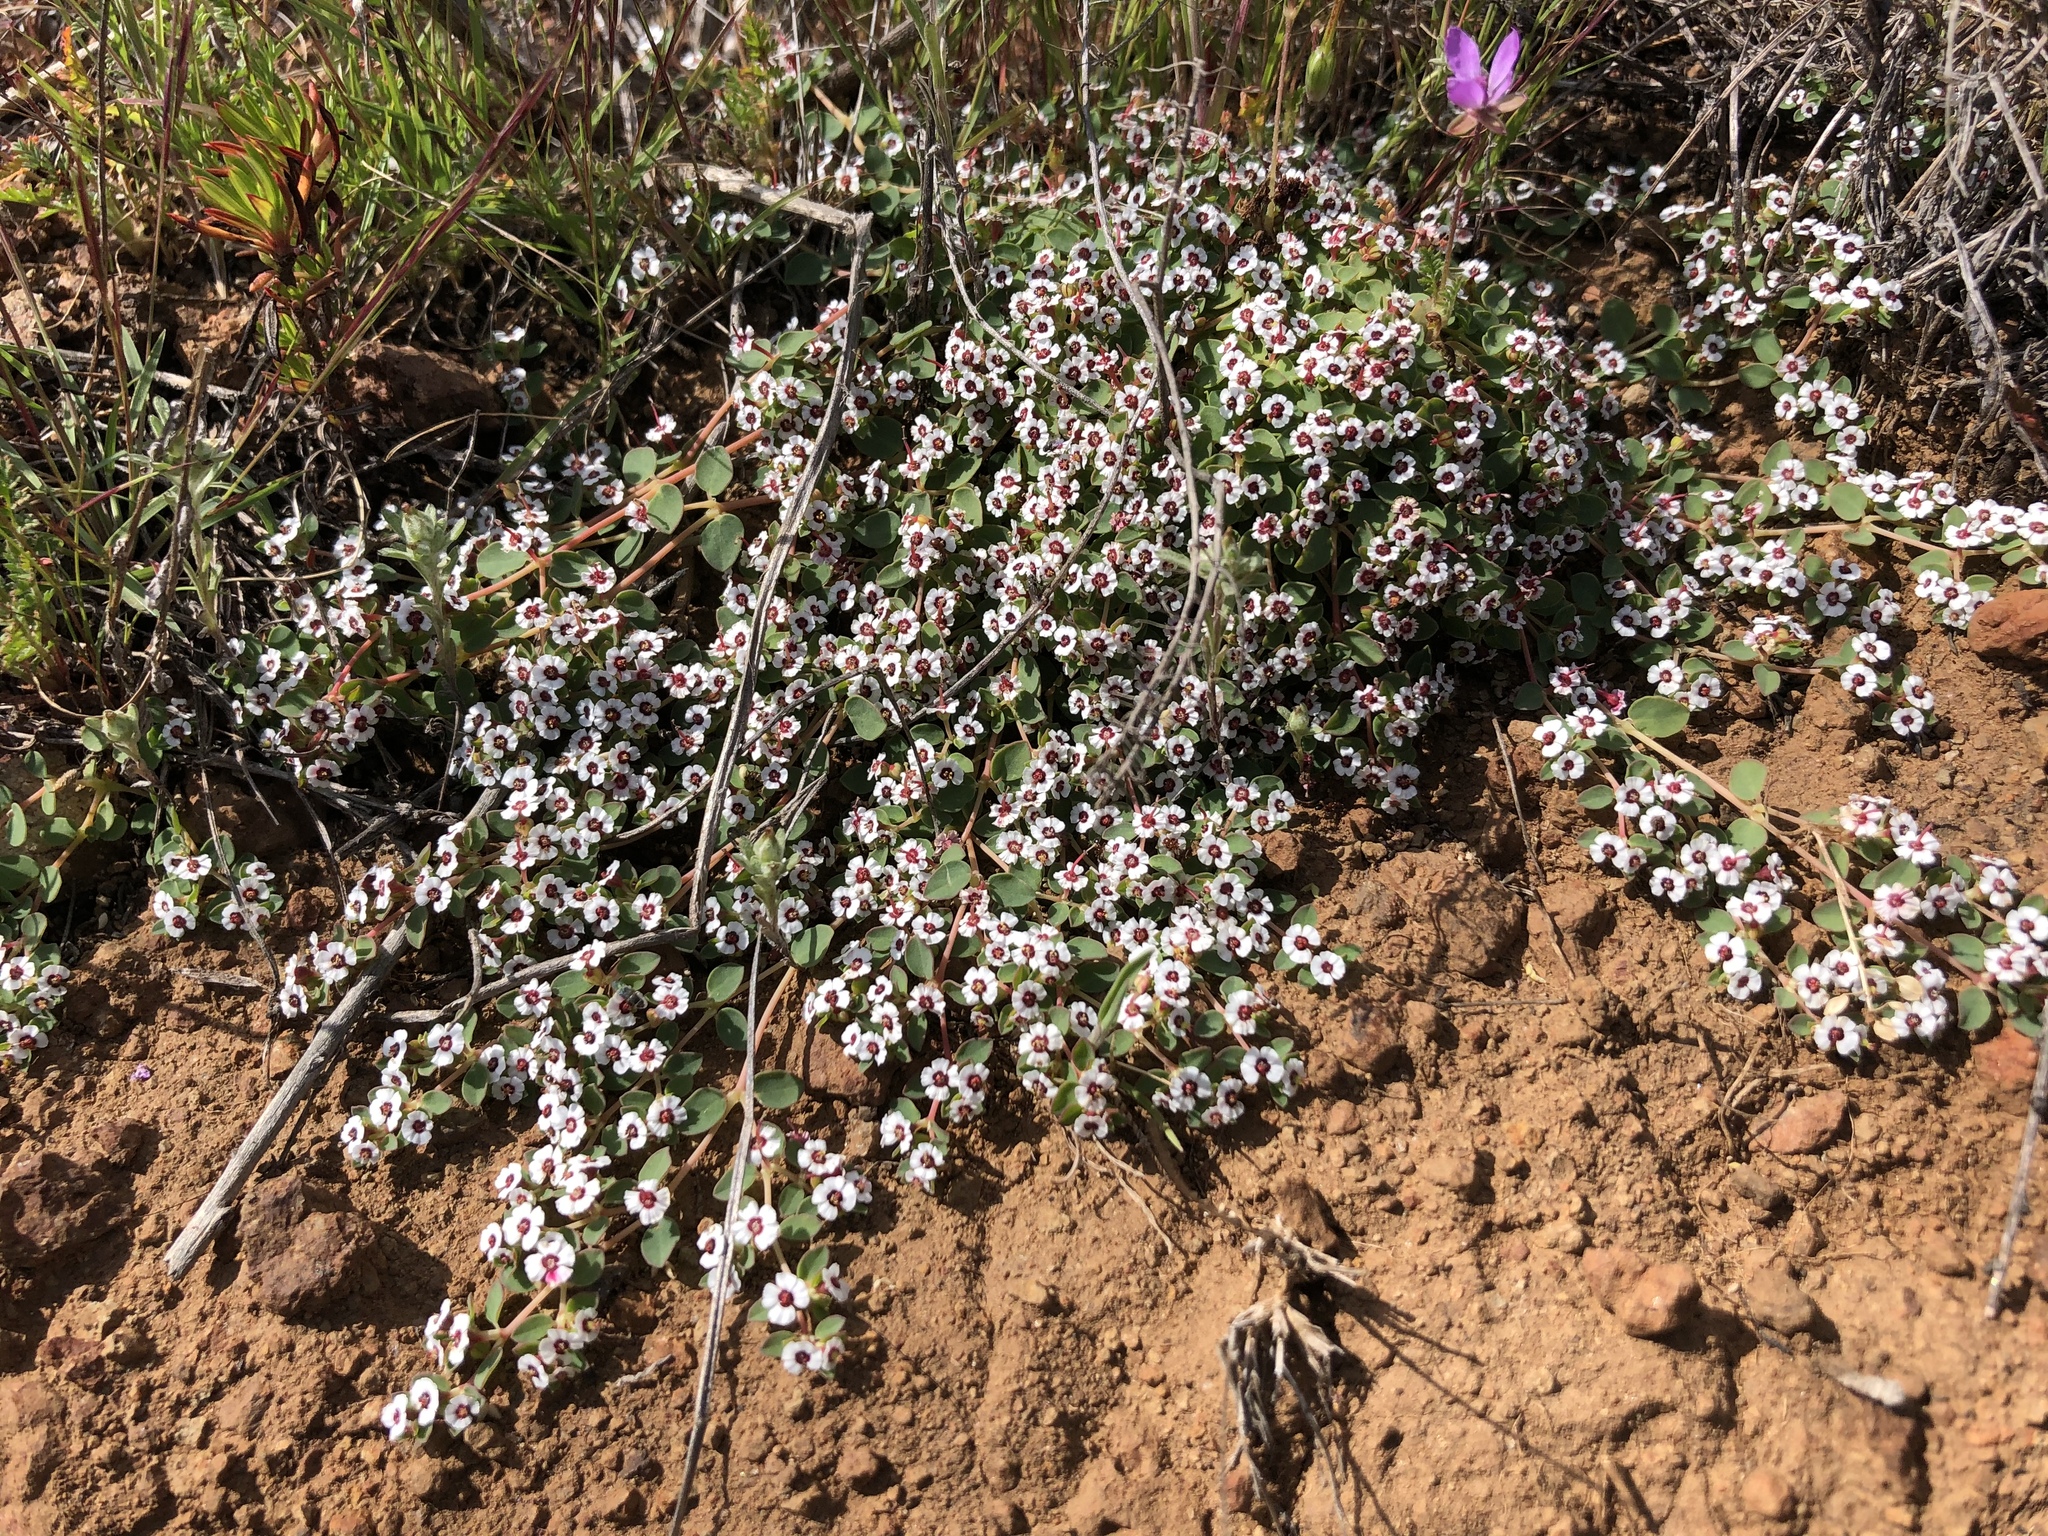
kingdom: Plantae
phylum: Tracheophyta
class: Magnoliopsida
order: Malpighiales
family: Euphorbiaceae
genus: Euphorbia
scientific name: Euphorbia polycarpa
